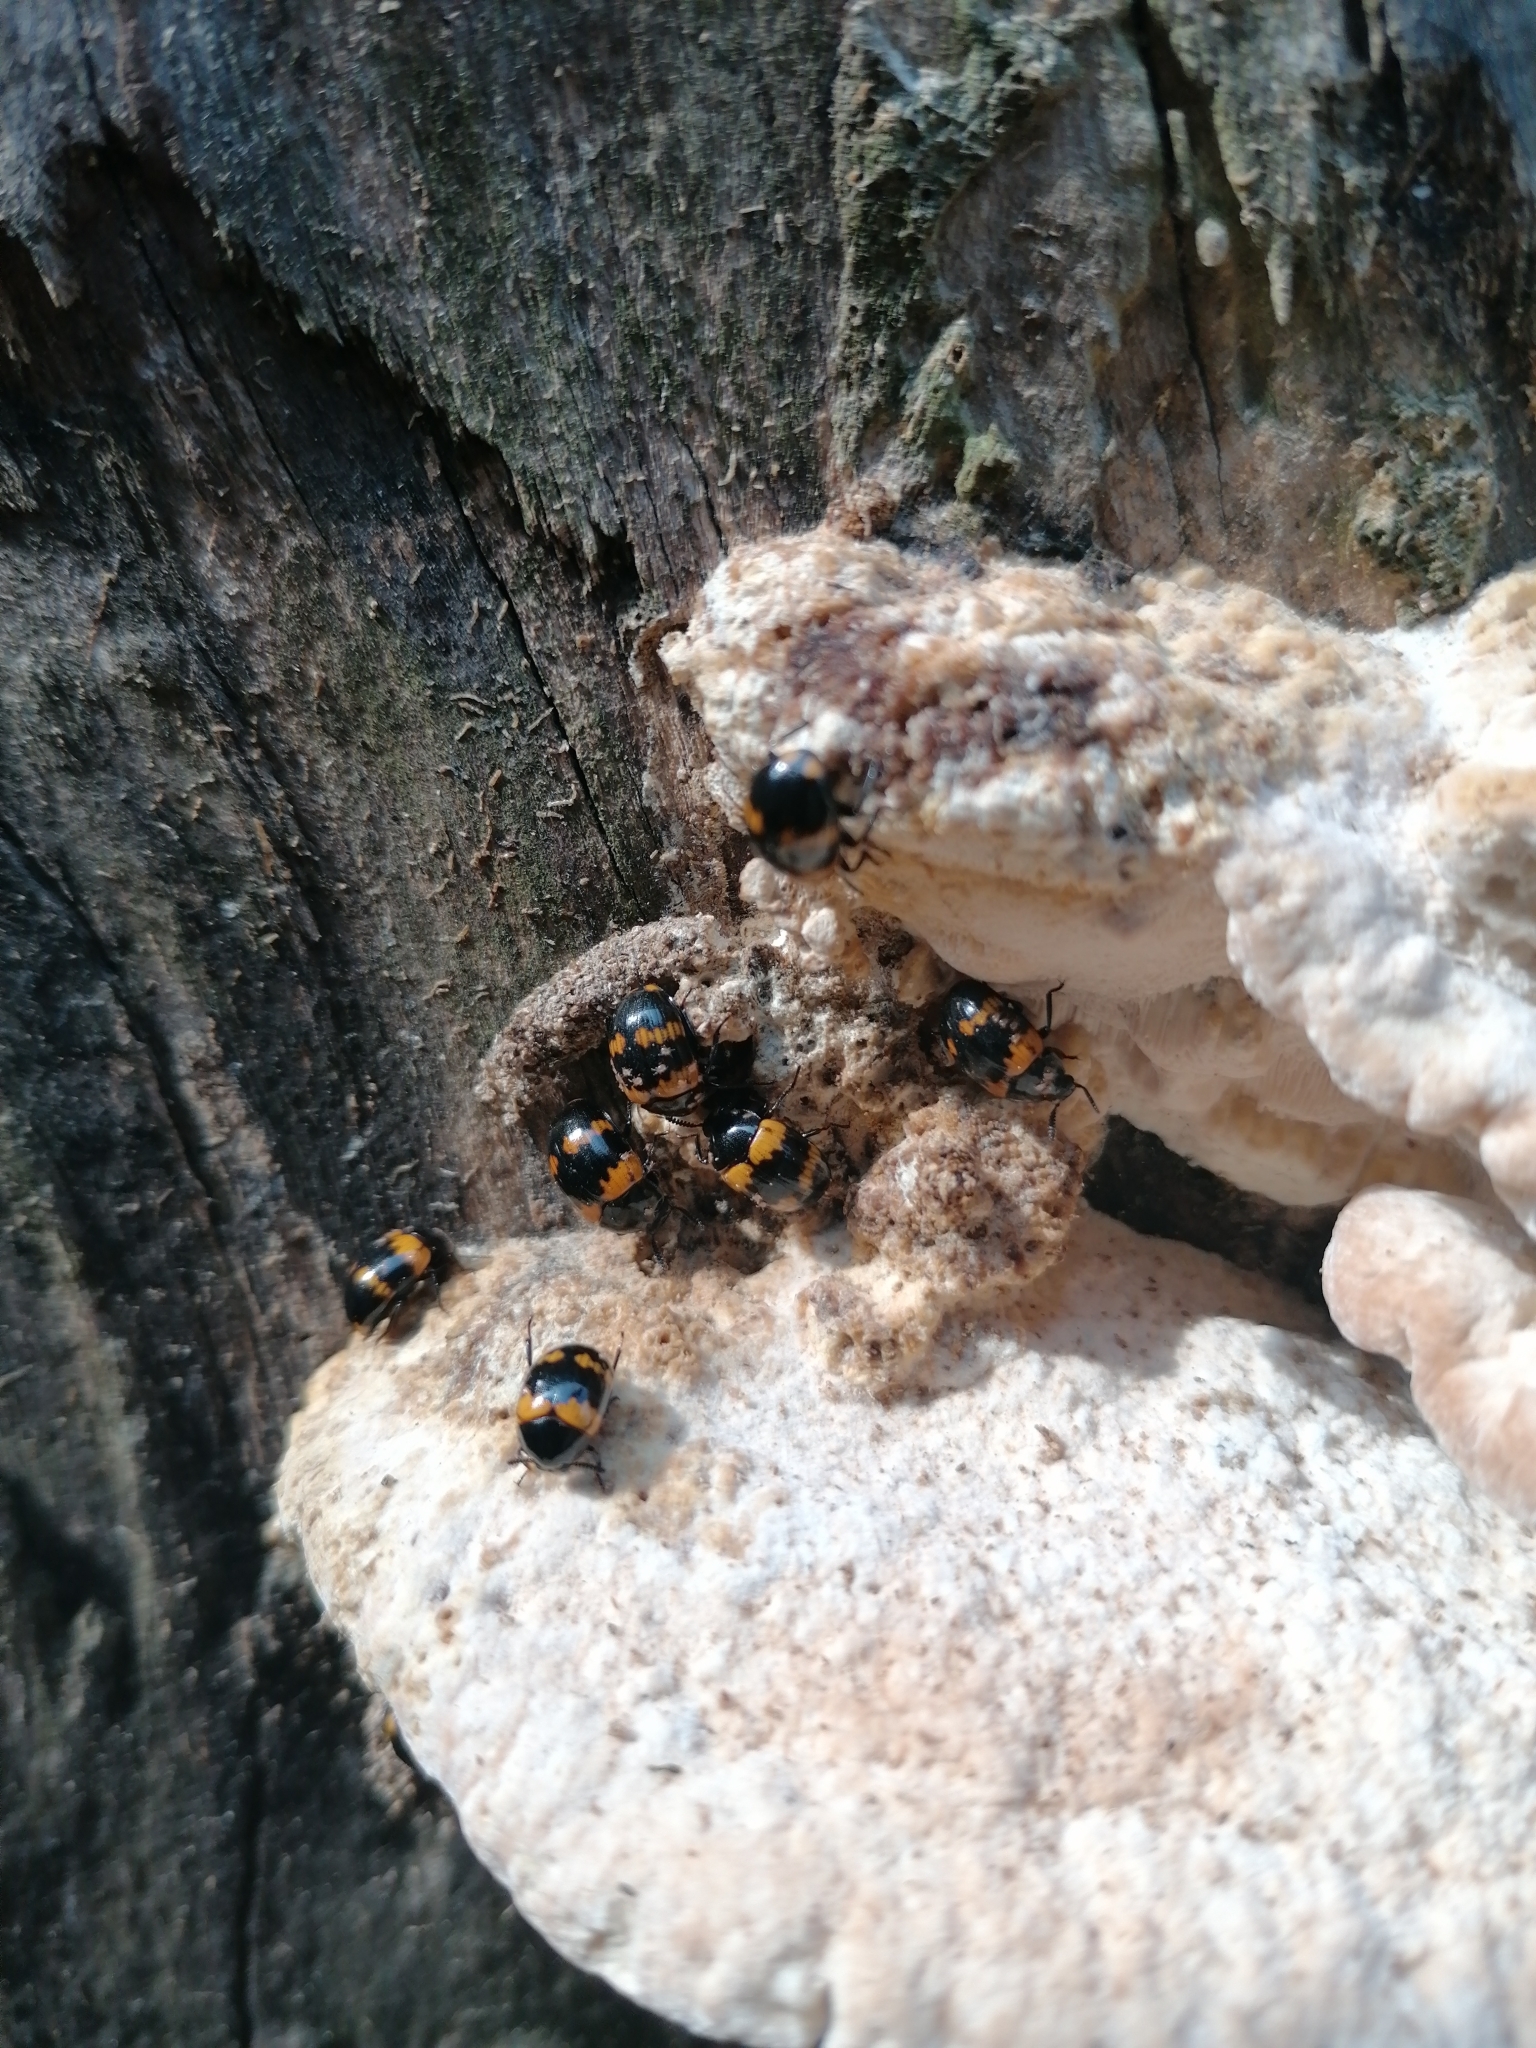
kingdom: Animalia
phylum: Arthropoda
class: Insecta
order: Coleoptera
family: Tenebrionidae
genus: Diaperis
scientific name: Diaperis boleti
